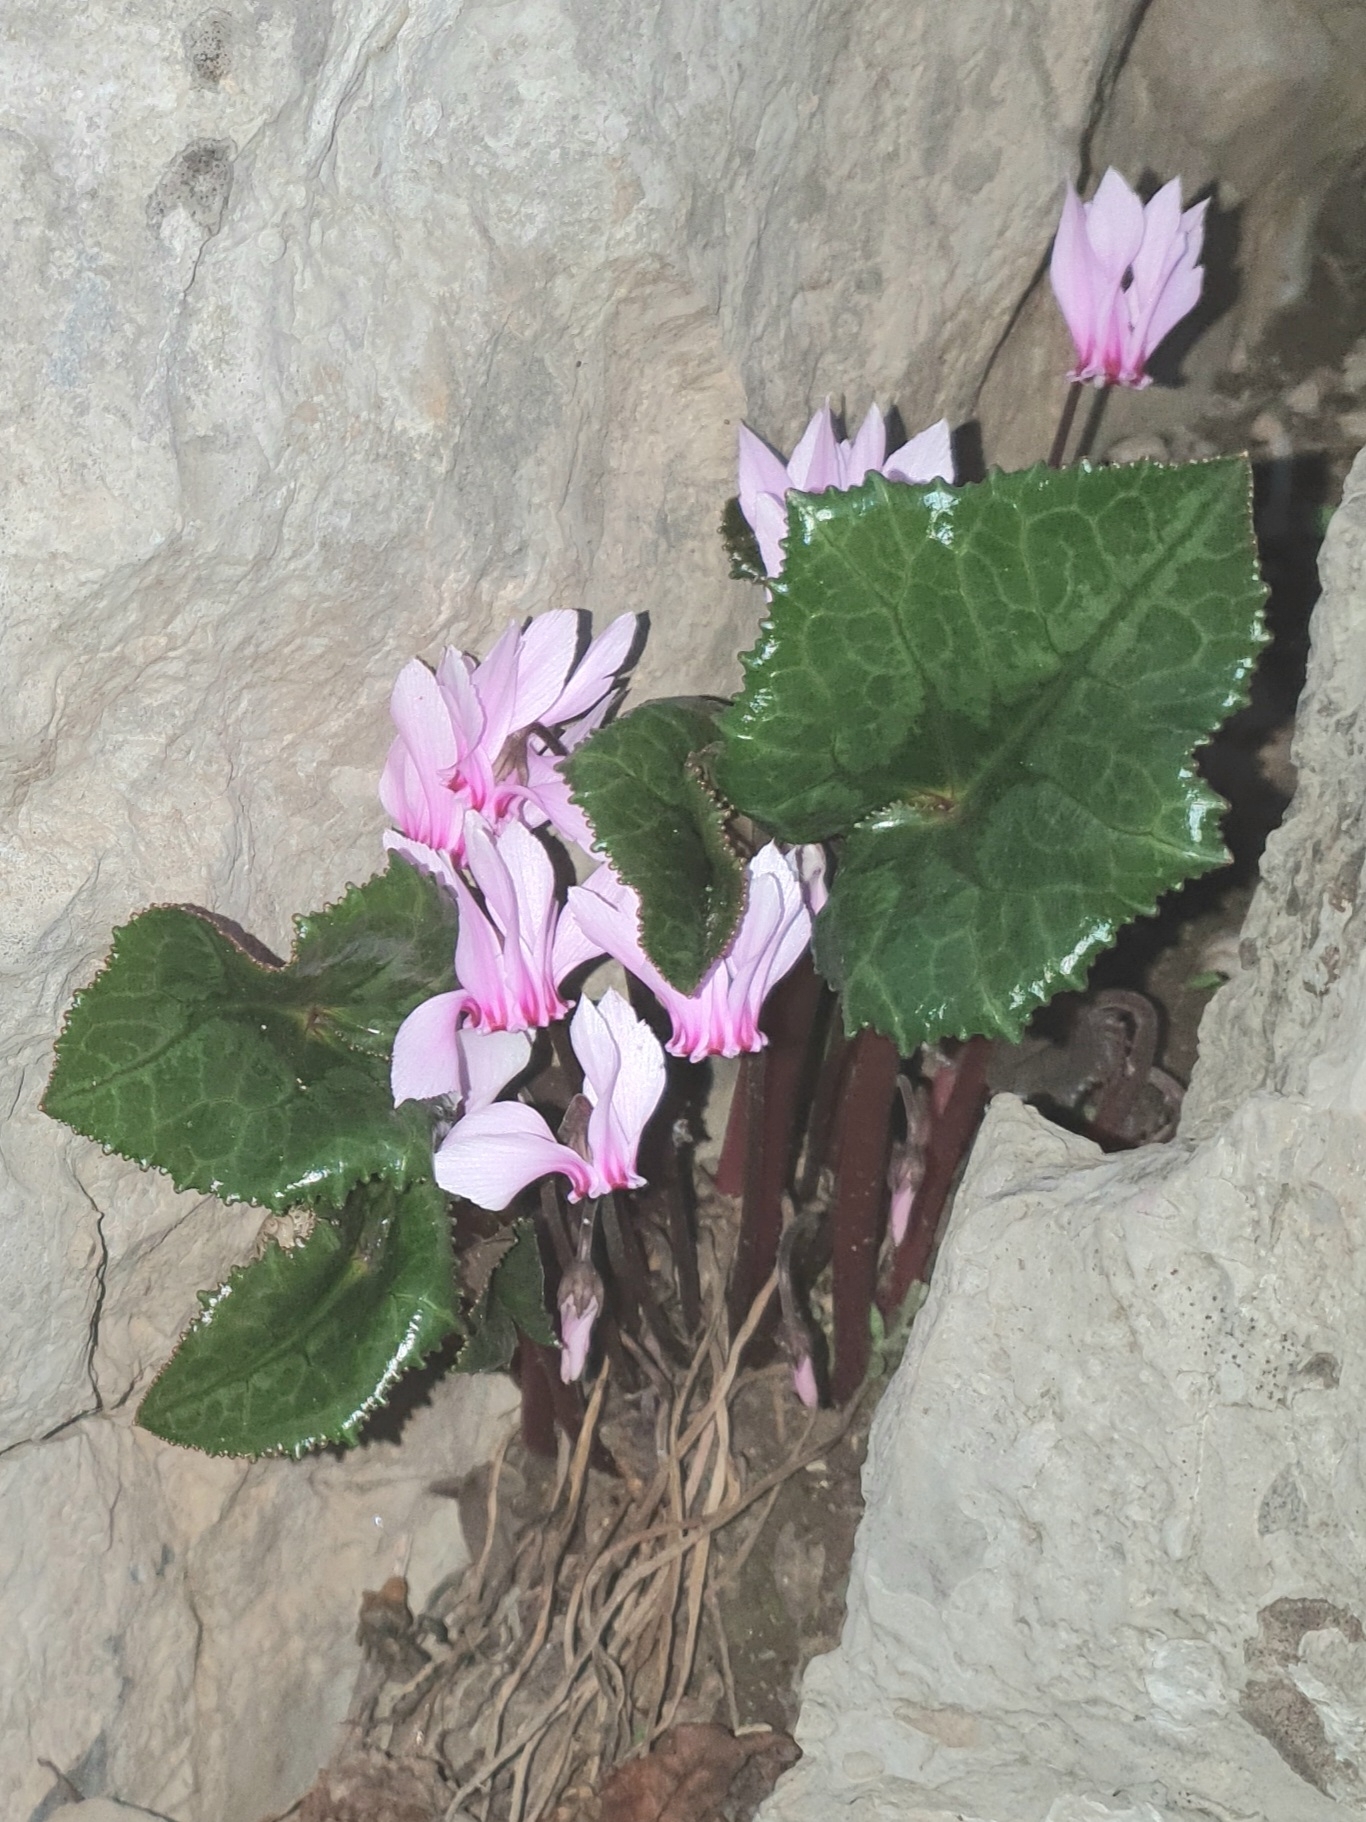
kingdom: Plantae
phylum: Tracheophyta
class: Magnoliopsida
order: Ericales
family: Primulaceae
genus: Cyclamen
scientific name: Cyclamen africanum
